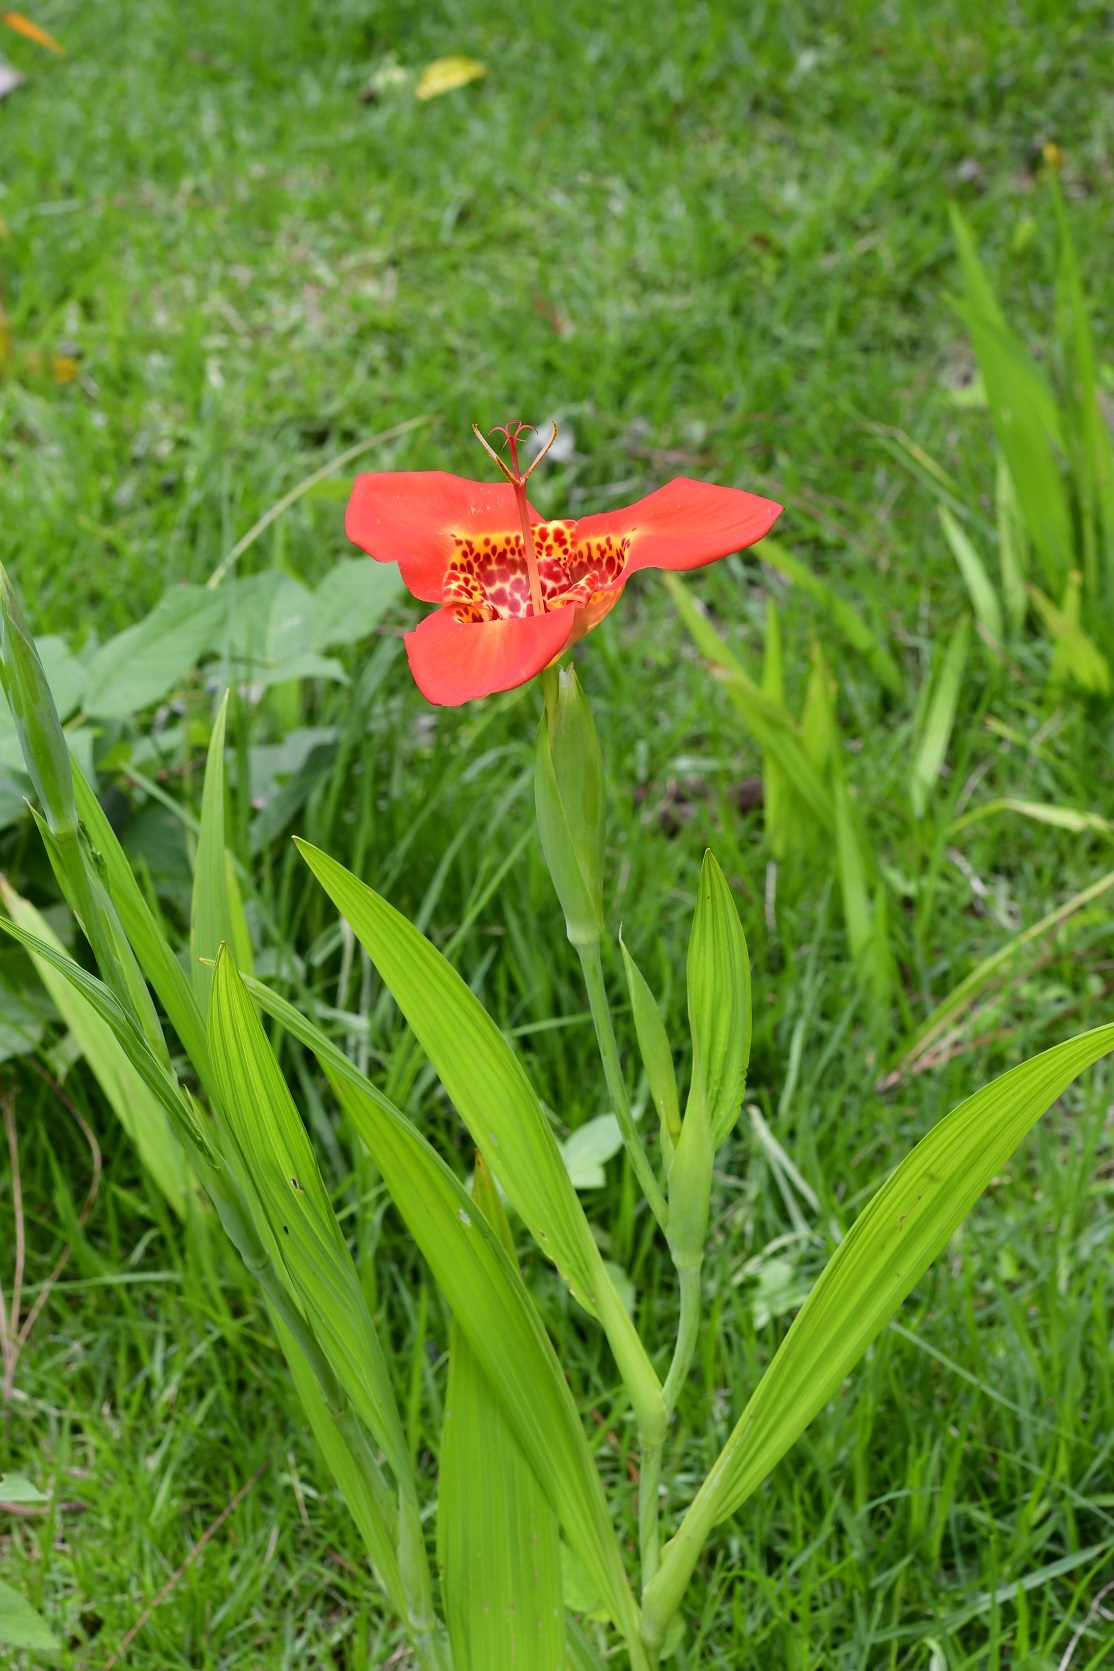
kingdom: Plantae
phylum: Tracheophyta
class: Liliopsida
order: Asparagales
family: Iridaceae
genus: Tigridia
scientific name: Tigridia pavonia
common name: Peacock-flower
